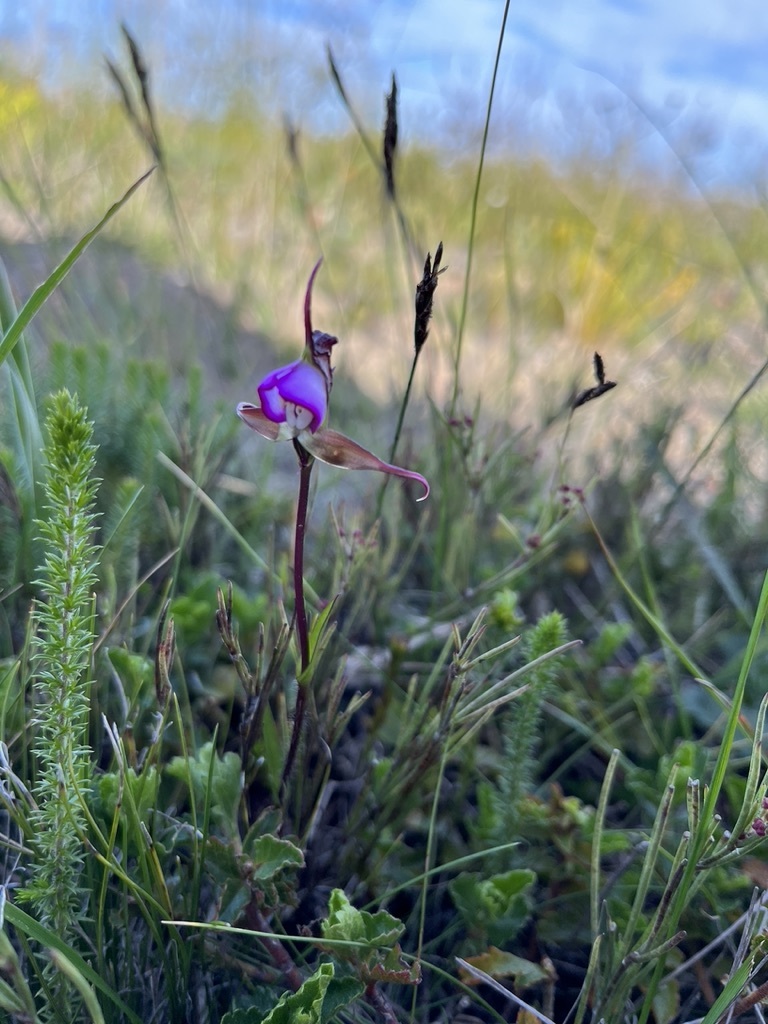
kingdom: Plantae
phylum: Tracheophyta
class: Liliopsida
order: Asparagales
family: Orchidaceae
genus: Disperis
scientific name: Disperis capensis
